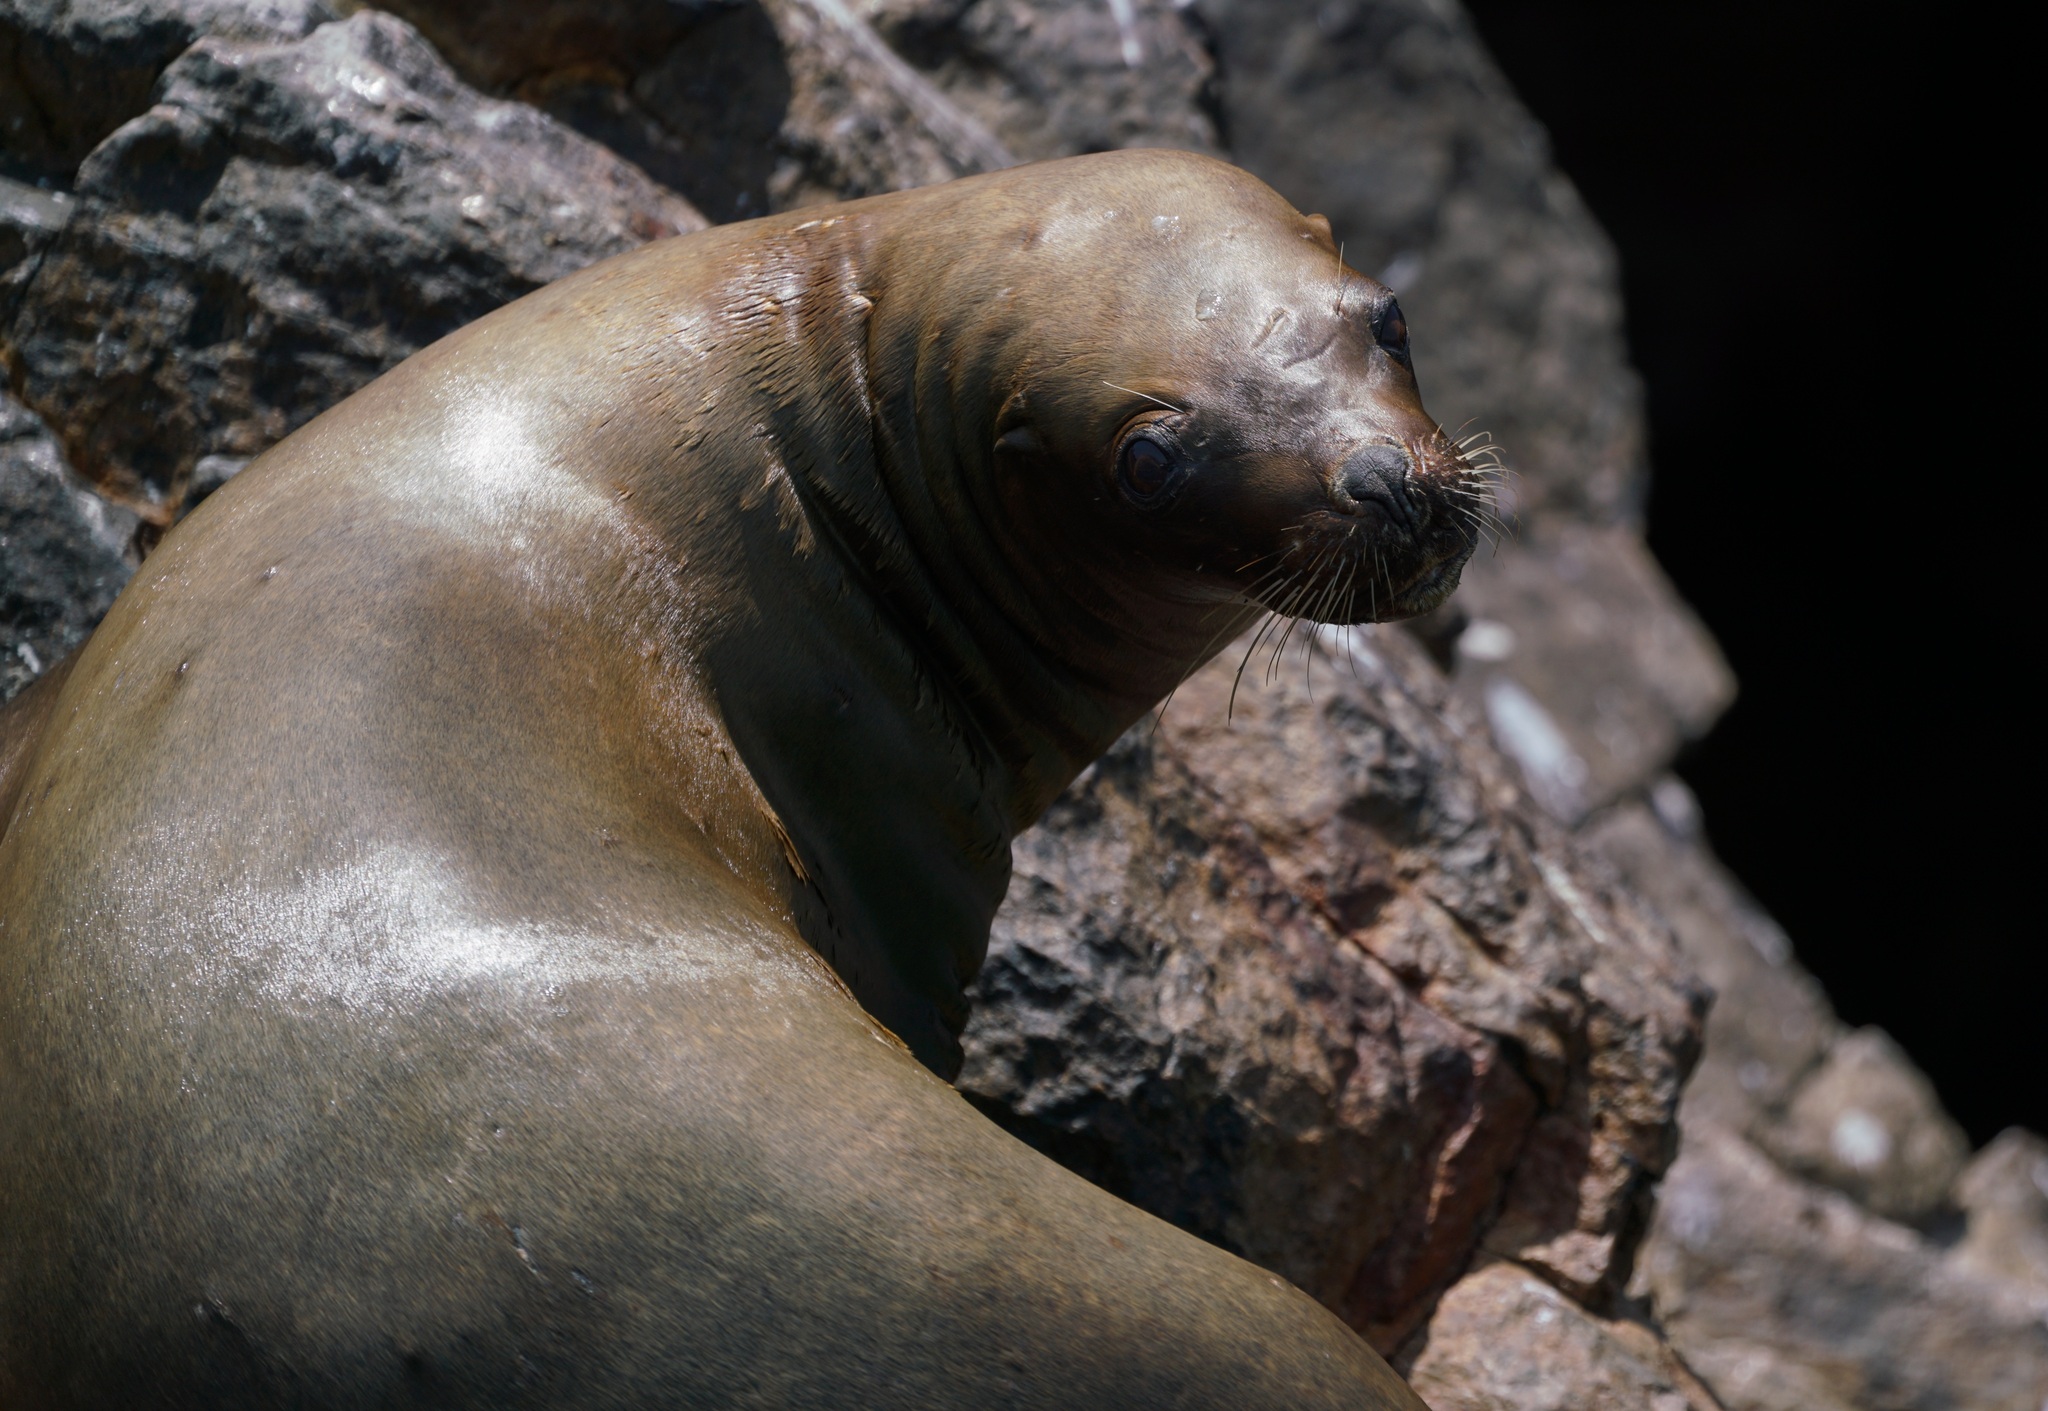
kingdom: Animalia
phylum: Chordata
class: Mammalia
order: Carnivora
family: Otariidae
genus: Otaria
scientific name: Otaria byronia
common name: South american sea lion
